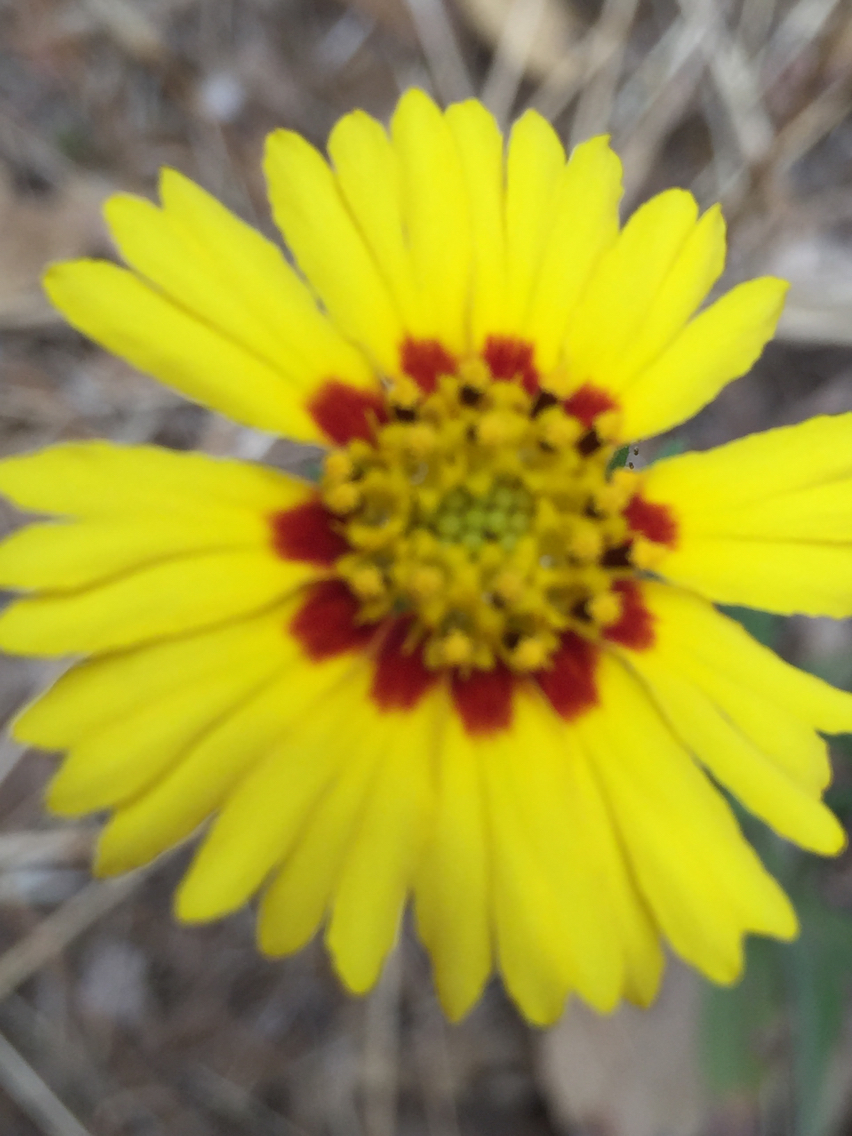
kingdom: Plantae
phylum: Tracheophyta
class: Magnoliopsida
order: Asterales
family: Asteraceae
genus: Madia
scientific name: Madia elegans
